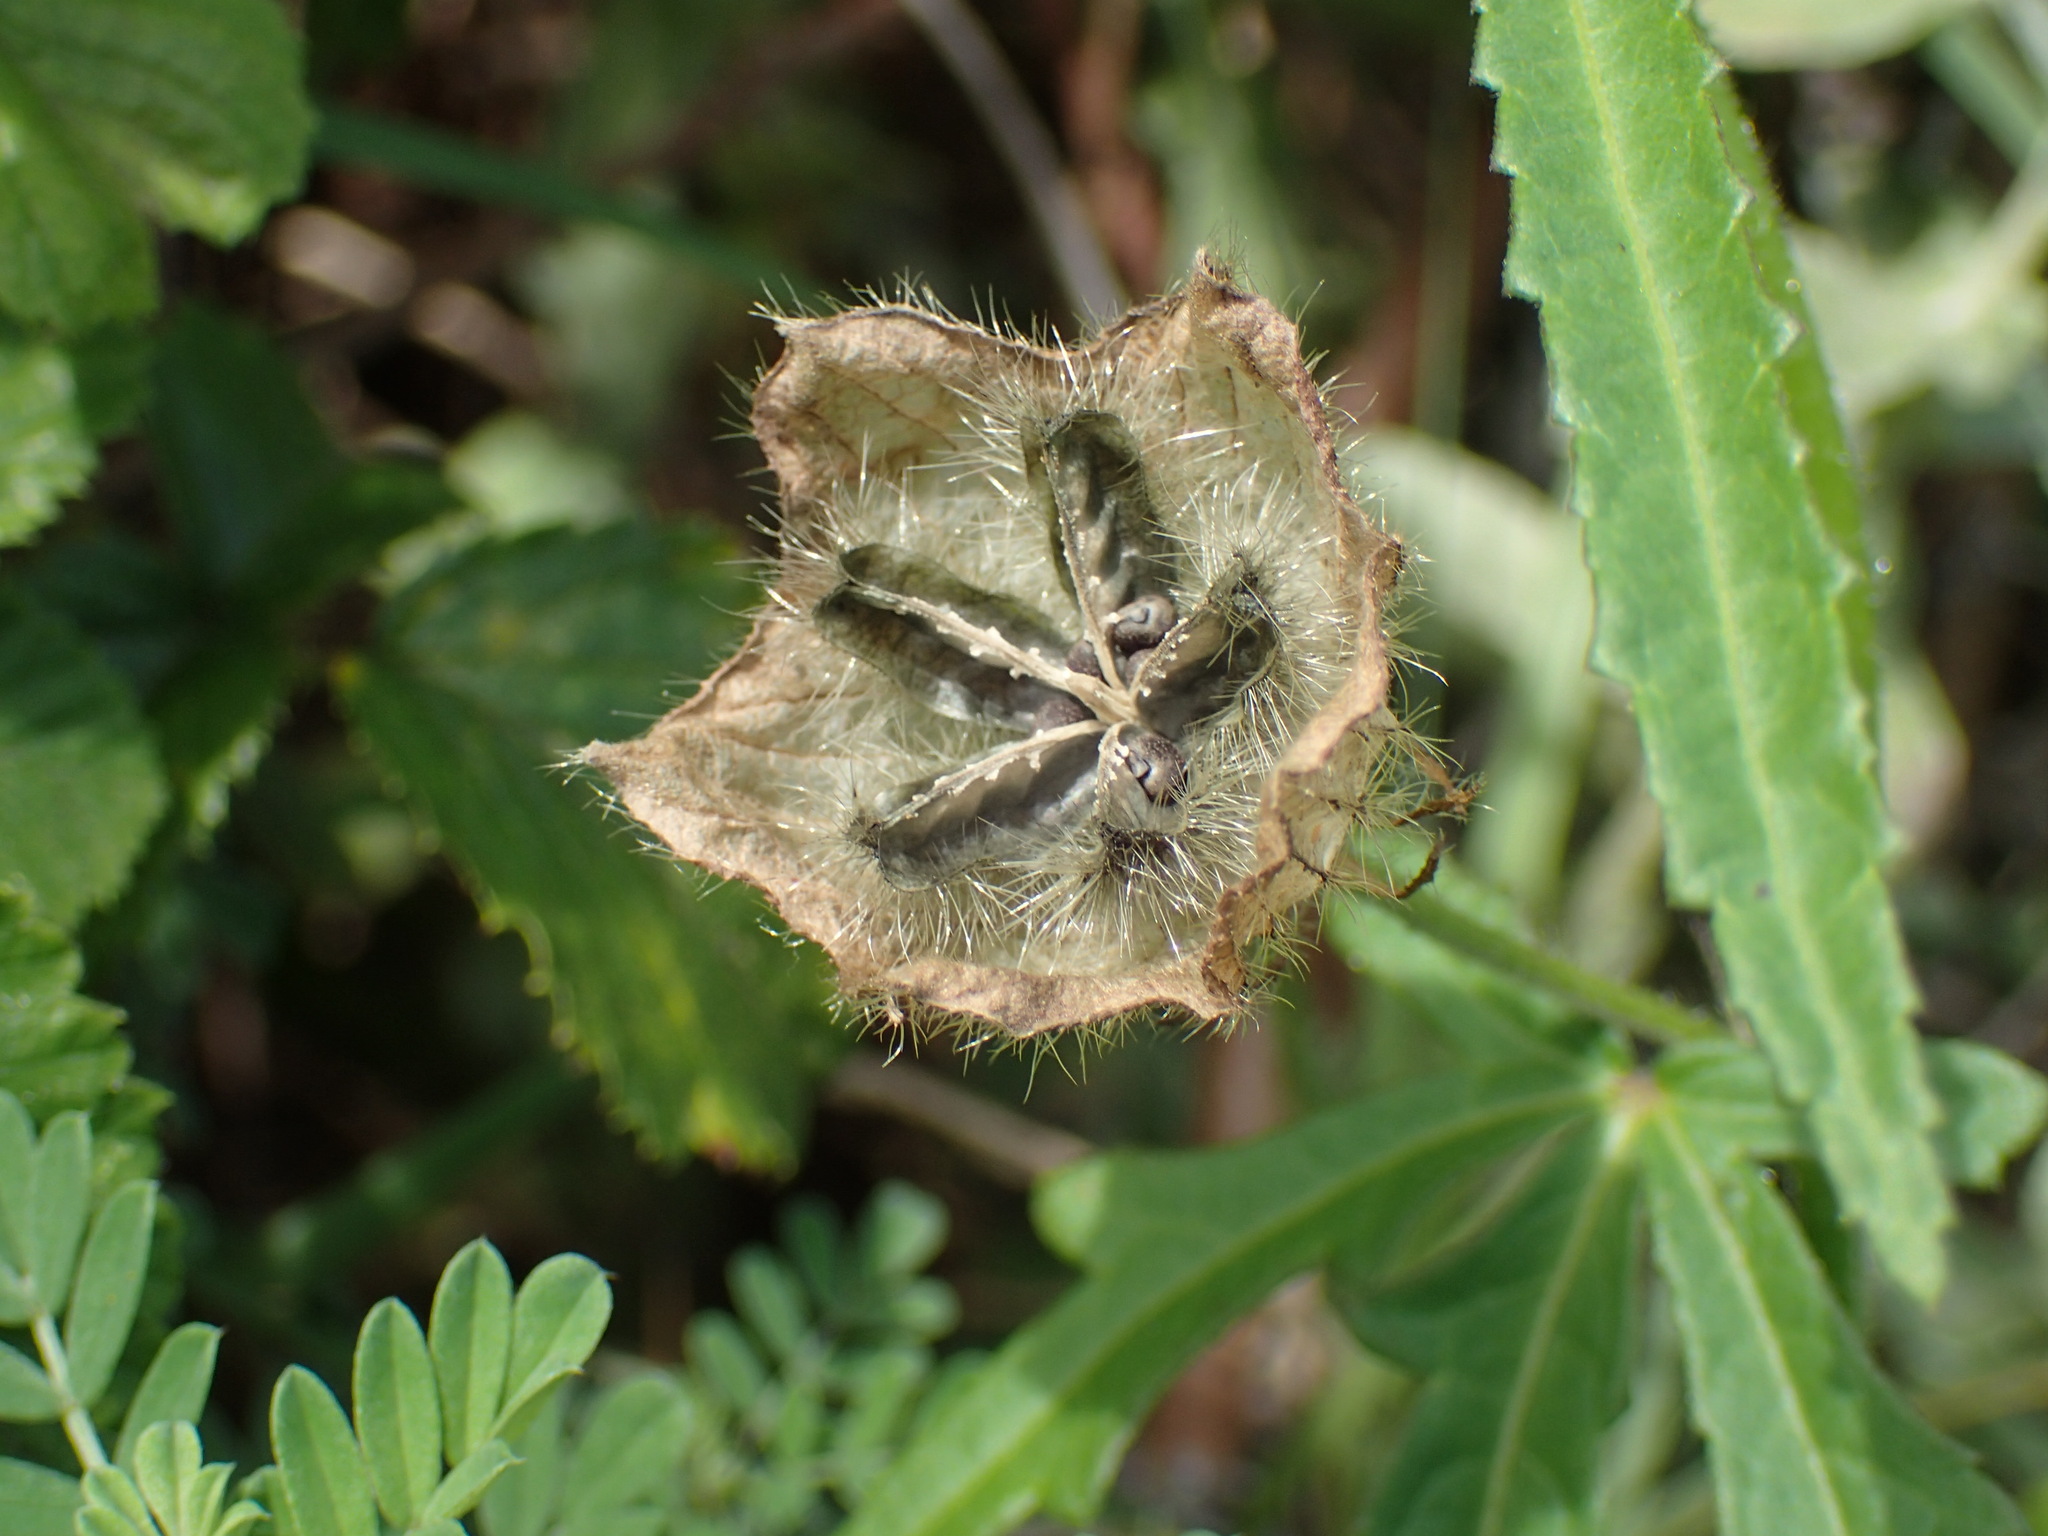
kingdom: Plantae
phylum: Tracheophyta
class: Magnoliopsida
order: Malvales
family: Malvaceae
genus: Hibiscus
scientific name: Hibiscus trionum
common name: Bladder ketmia
